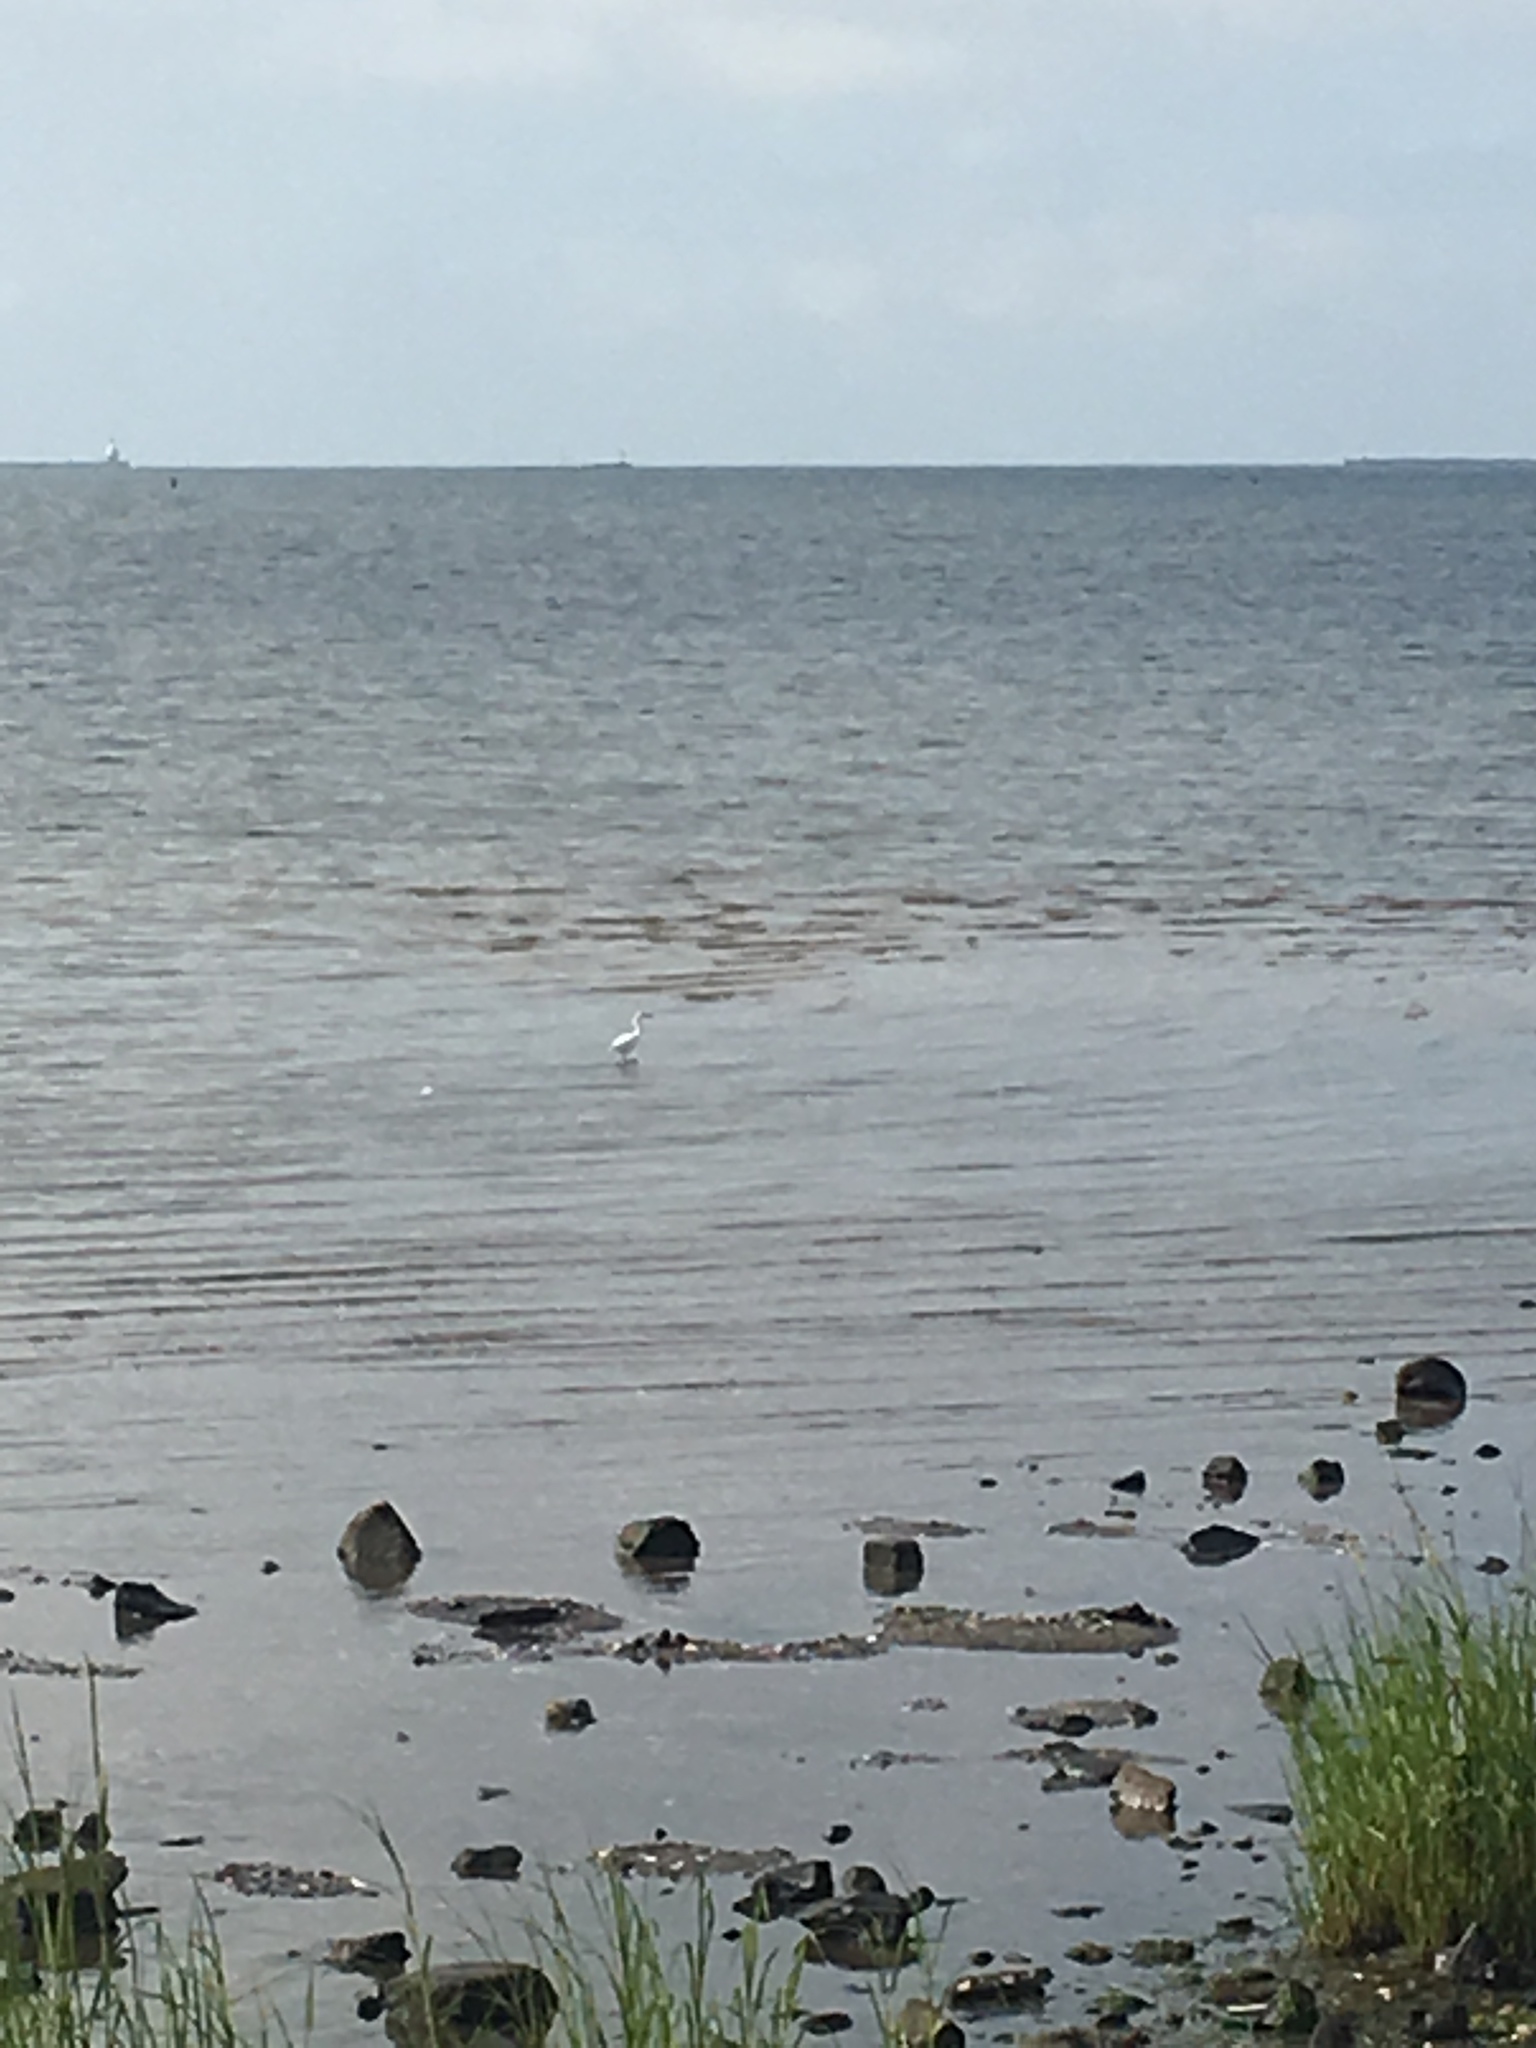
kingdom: Animalia
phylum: Chordata
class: Aves
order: Pelecaniformes
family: Ardeidae
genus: Egretta
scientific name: Egretta thula
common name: Snowy egret
